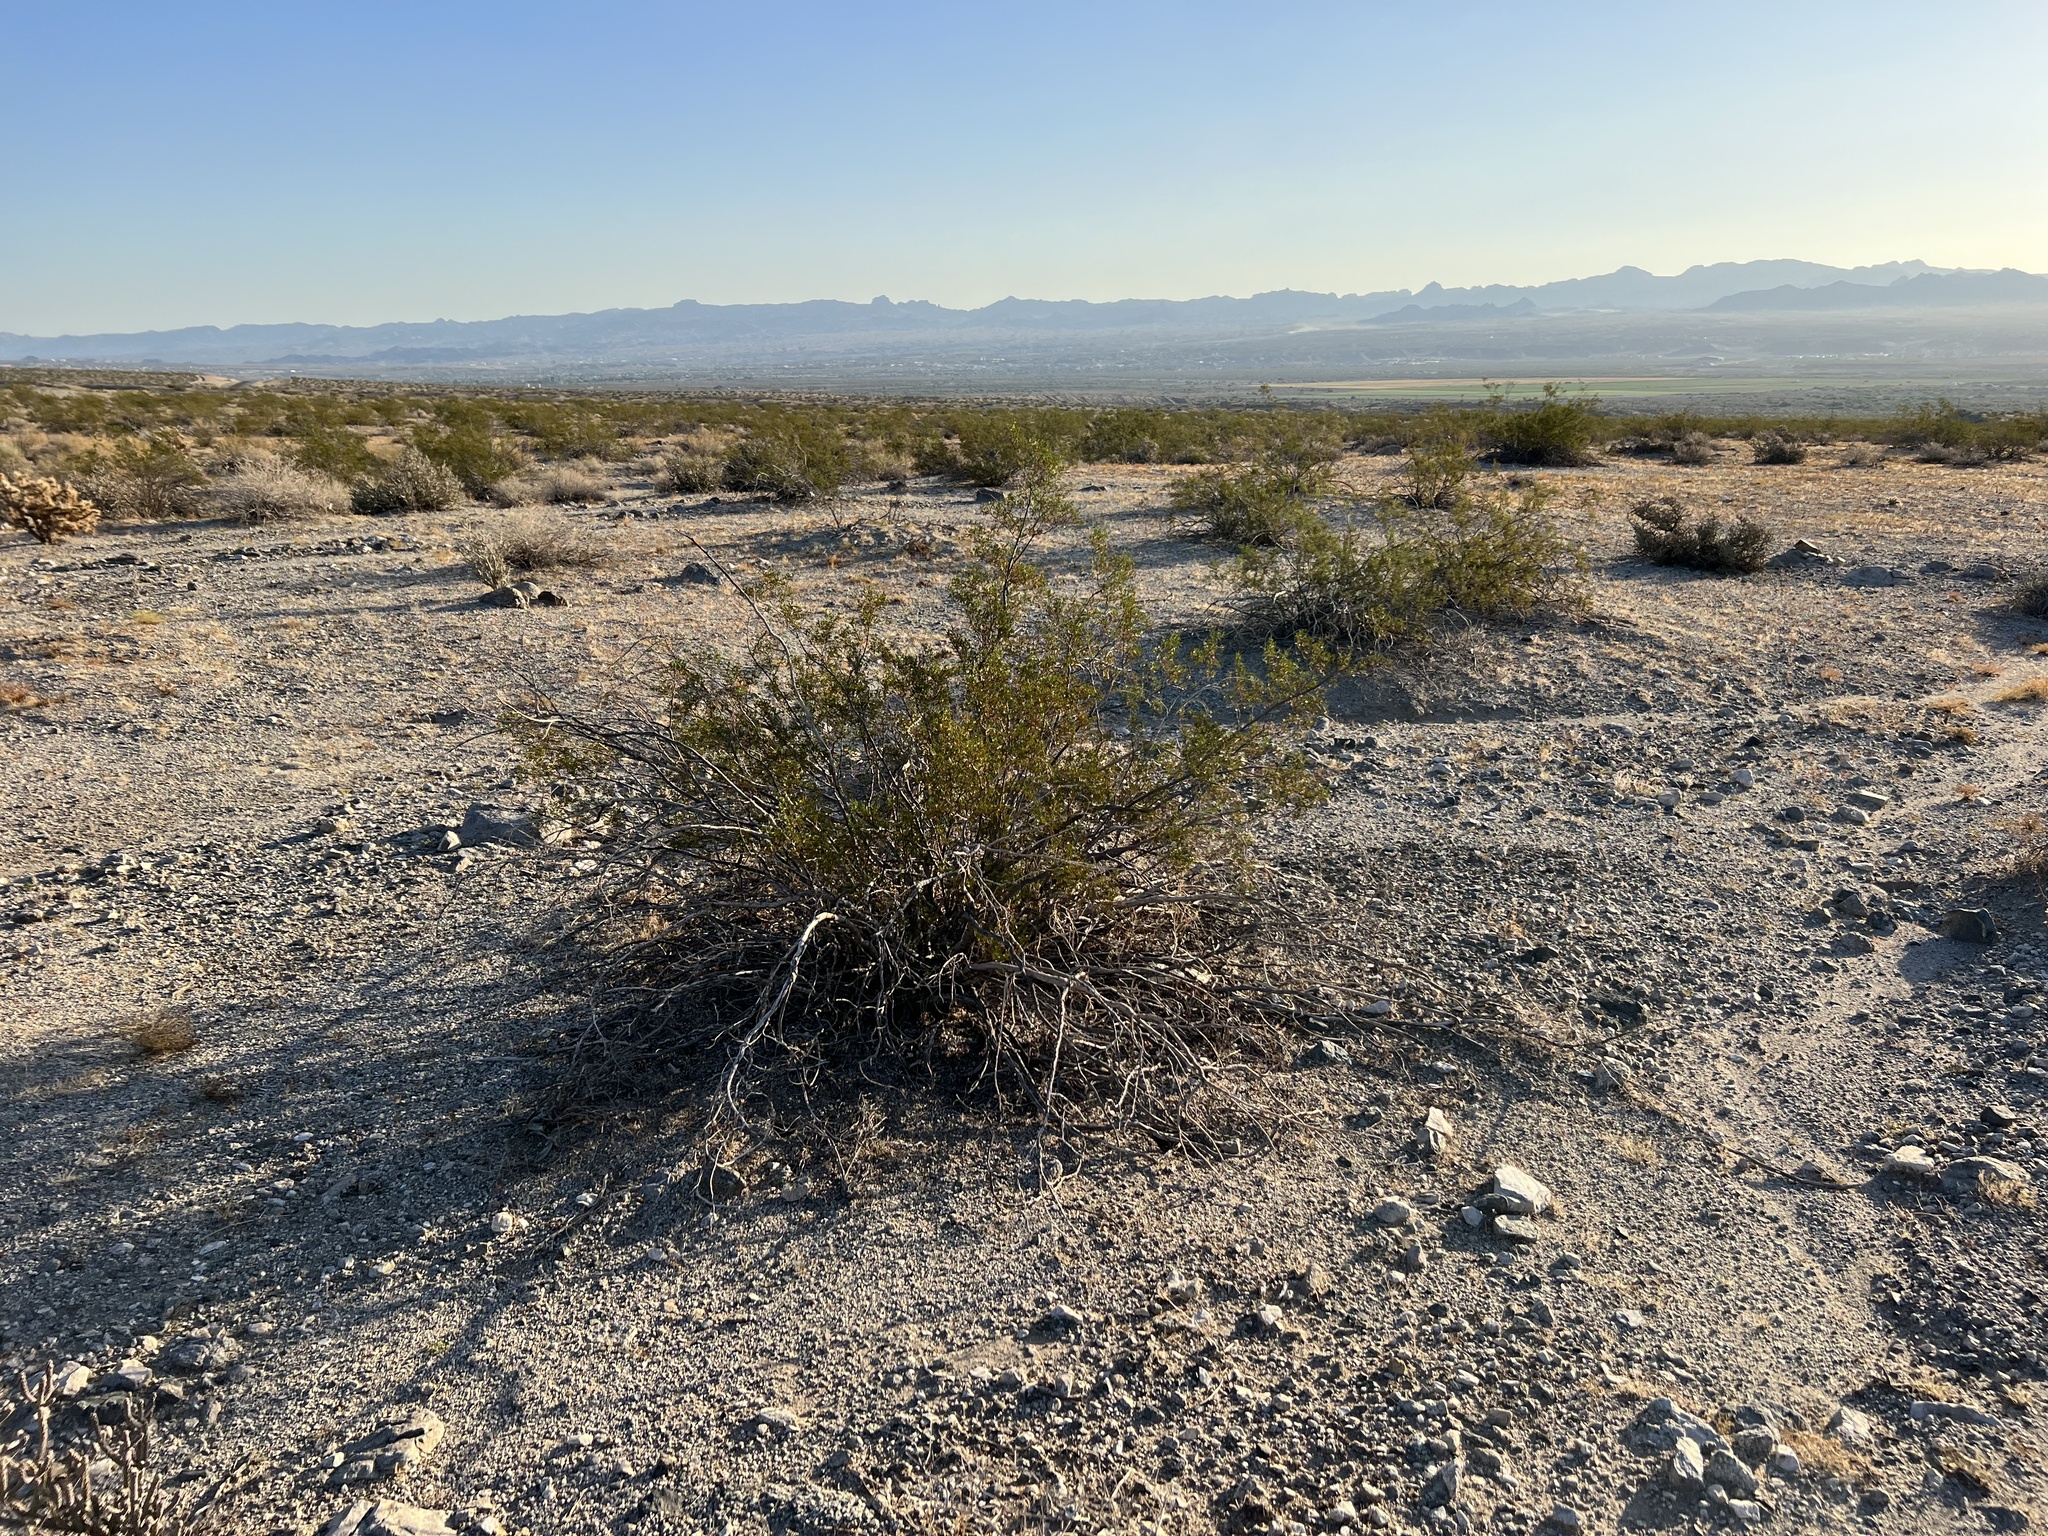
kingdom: Plantae
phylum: Tracheophyta
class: Magnoliopsida
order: Zygophyllales
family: Zygophyllaceae
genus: Larrea
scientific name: Larrea tridentata
